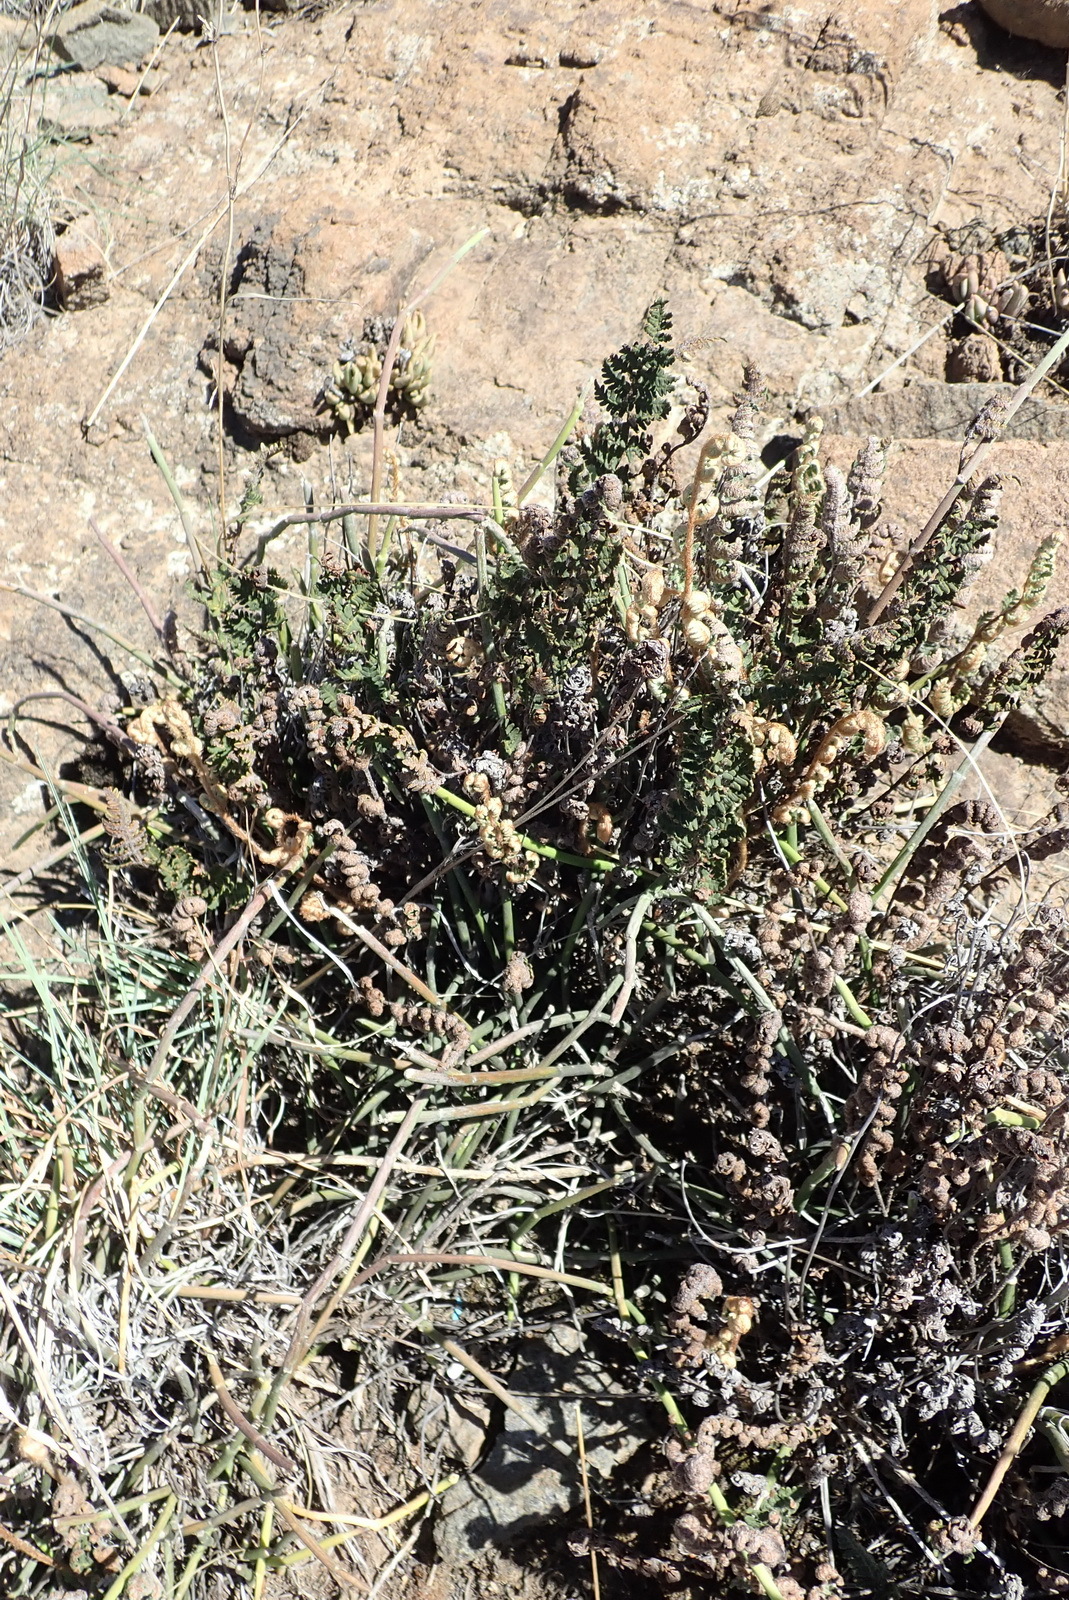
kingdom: Plantae
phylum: Tracheophyta
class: Polypodiopsida
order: Polypodiales
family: Pteridaceae
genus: Cheilanthes
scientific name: Cheilanthes eckloniana
